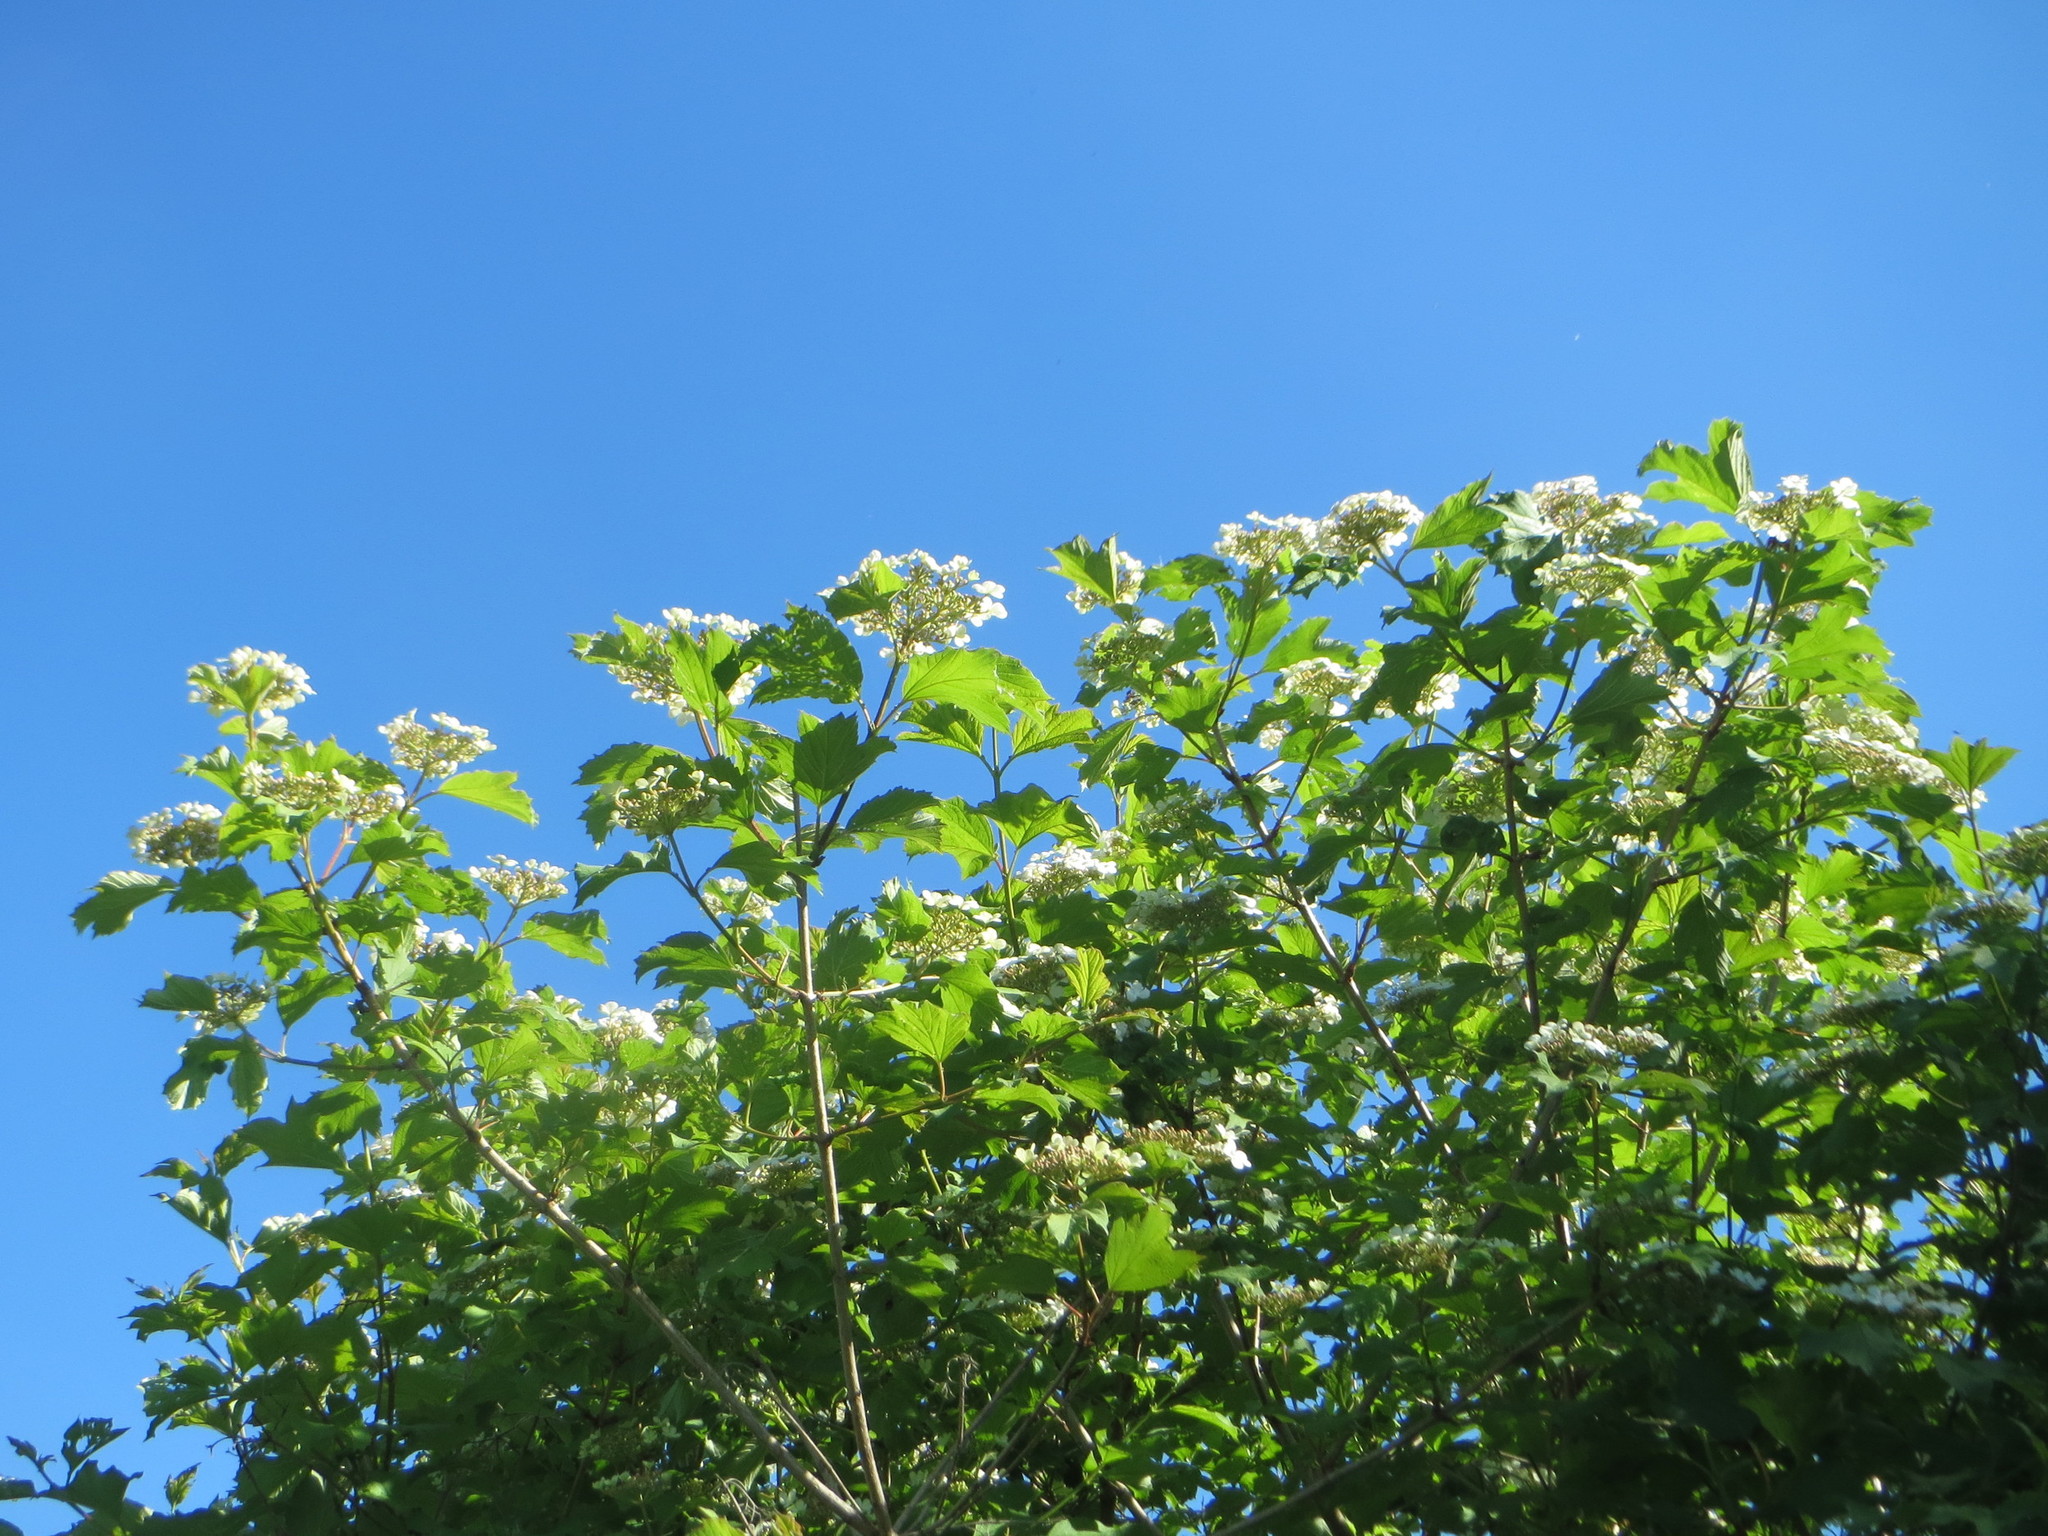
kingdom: Plantae
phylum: Tracheophyta
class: Magnoliopsida
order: Dipsacales
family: Viburnaceae
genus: Viburnum
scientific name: Viburnum opulus
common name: Guelder-rose
